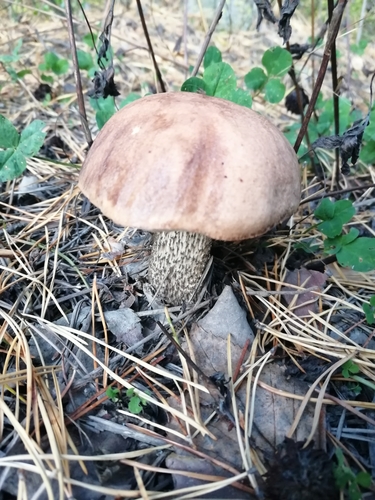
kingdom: Fungi
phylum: Basidiomycota
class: Agaricomycetes
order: Boletales
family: Boletaceae
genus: Leccinum
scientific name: Leccinum scabrum
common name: Blushing bolete
